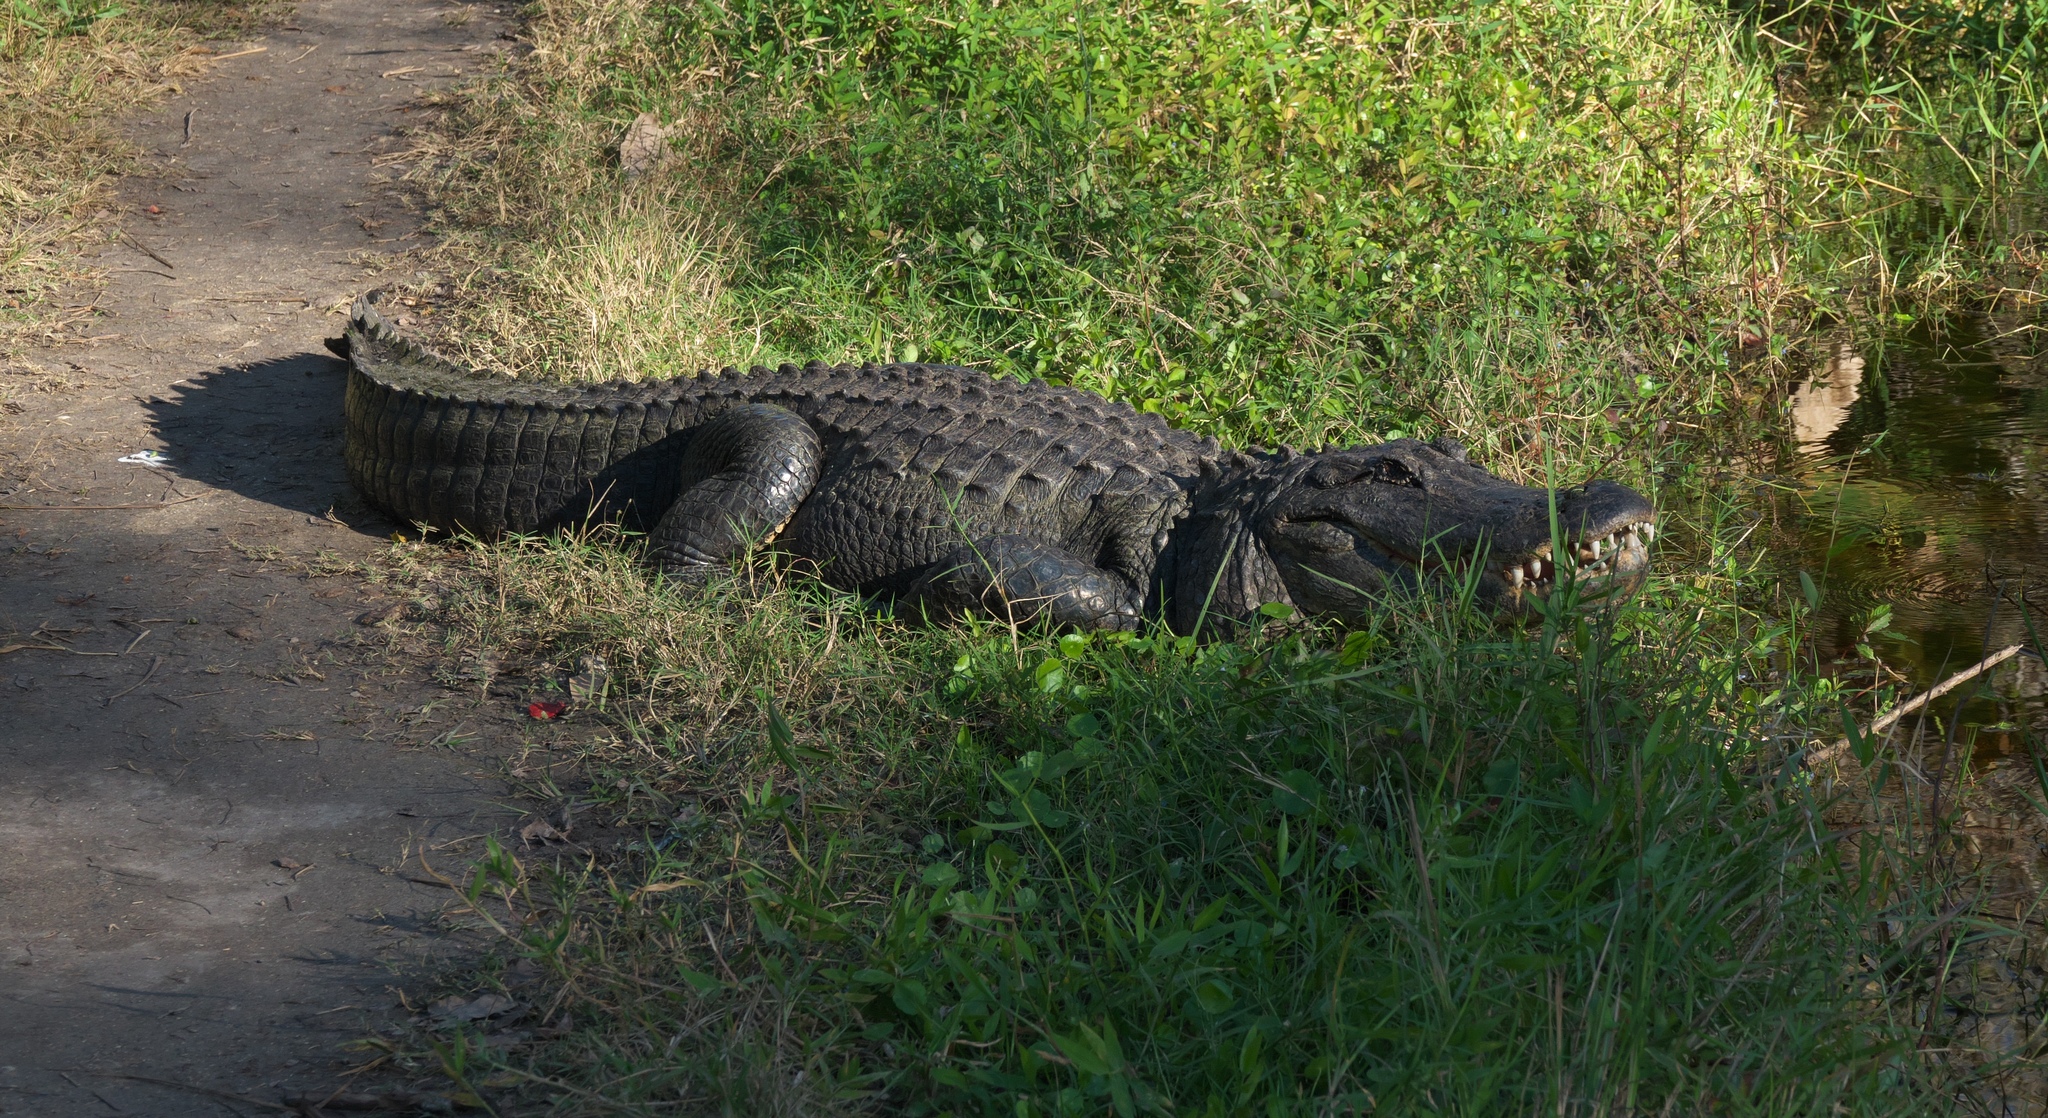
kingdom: Animalia
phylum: Chordata
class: Crocodylia
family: Alligatoridae
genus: Alligator
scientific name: Alligator mississippiensis
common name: American alligator
